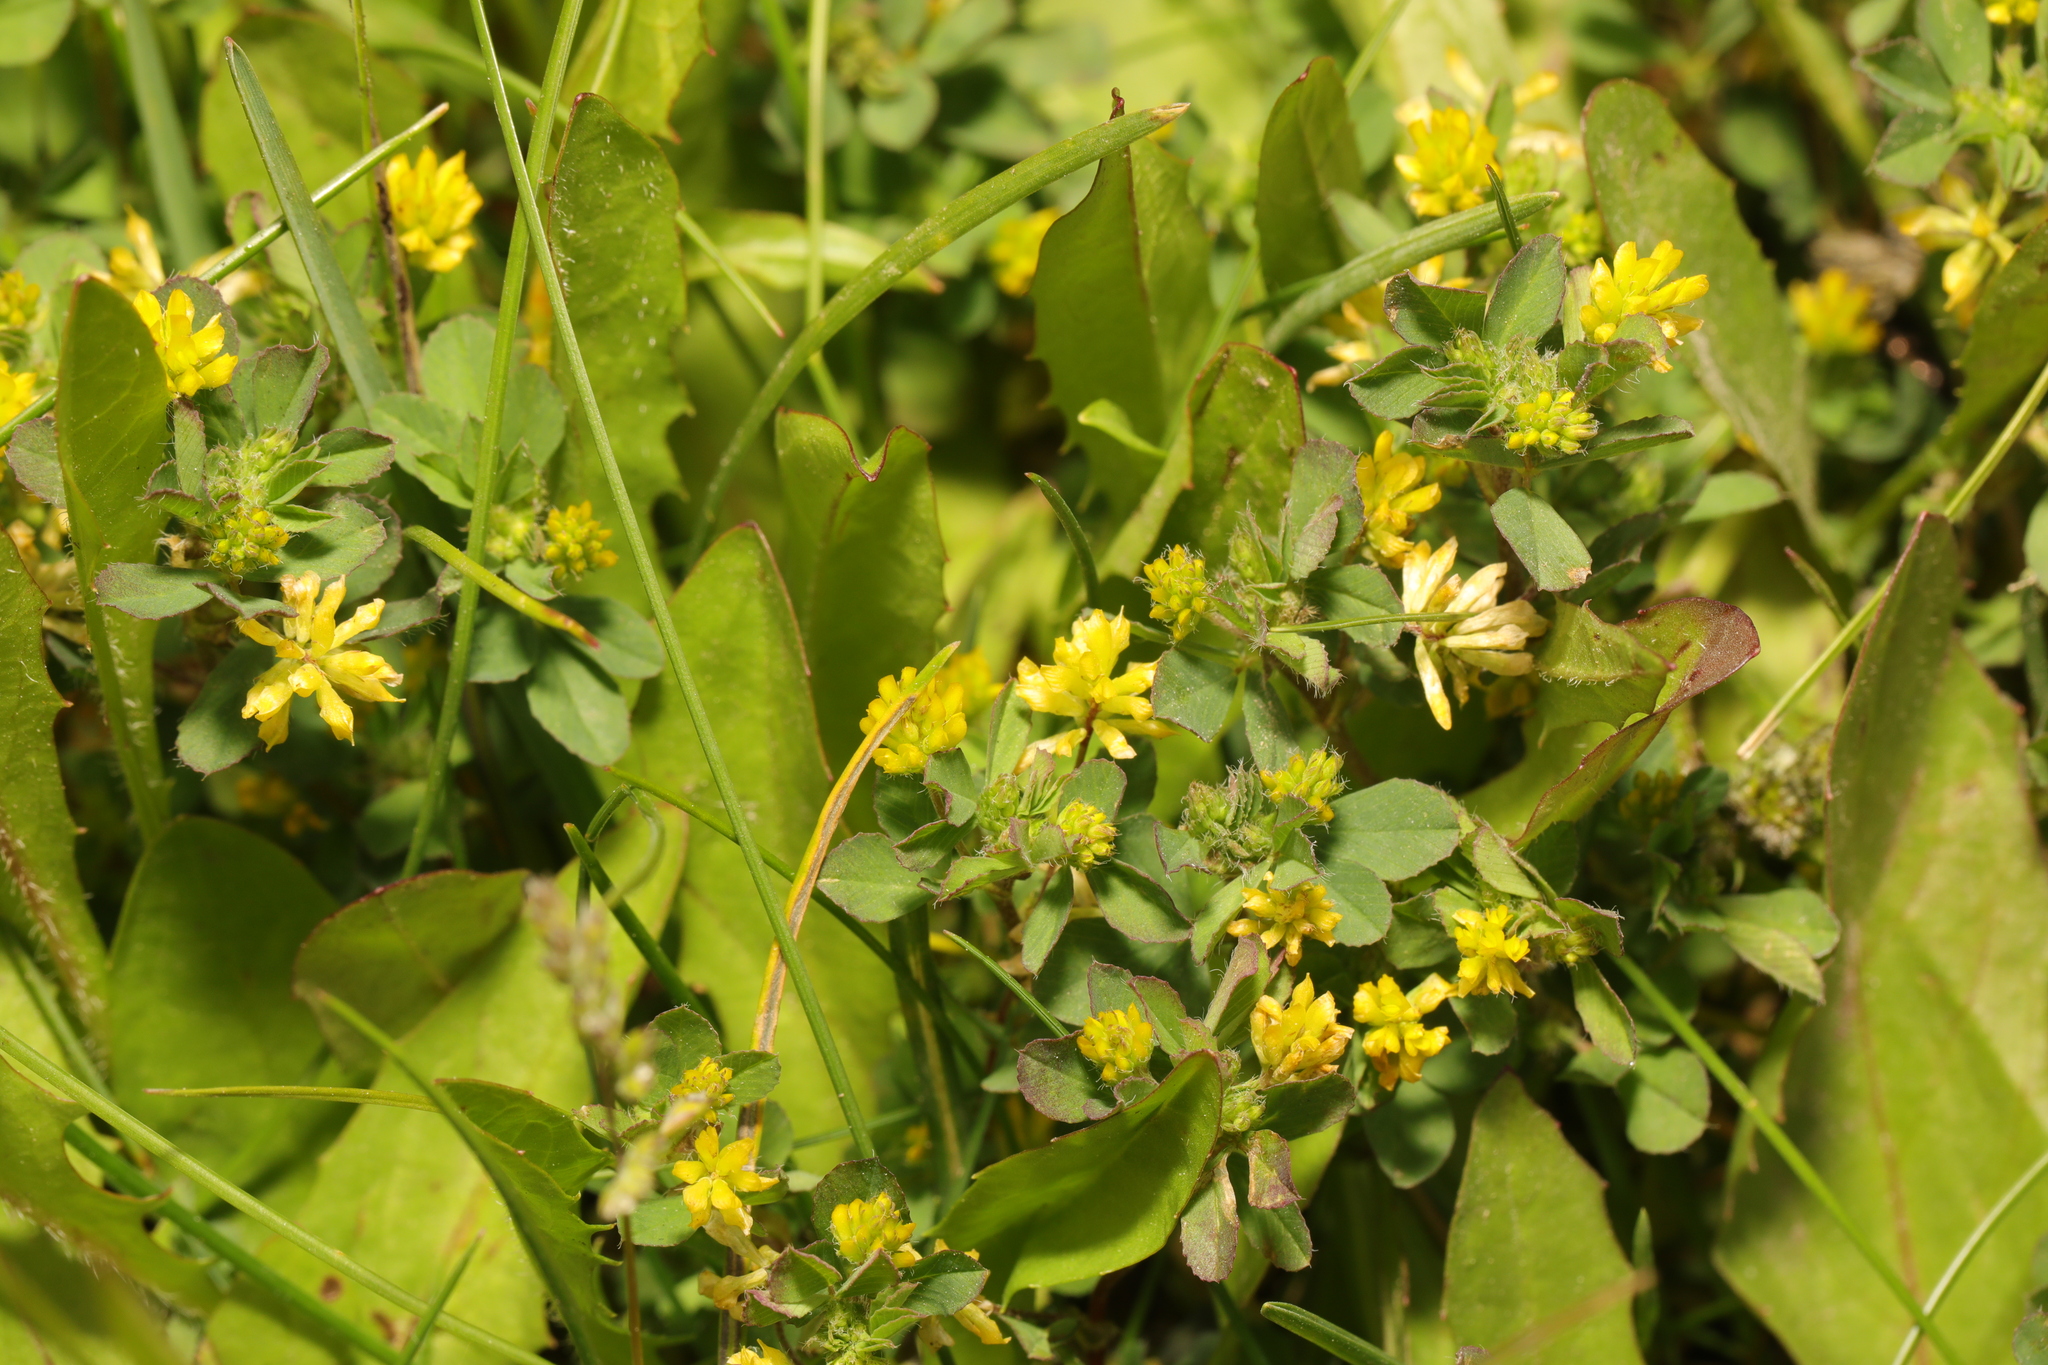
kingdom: Plantae
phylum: Tracheophyta
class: Magnoliopsida
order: Fabales
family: Fabaceae
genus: Trifolium
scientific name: Trifolium dubium
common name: Suckling clover
